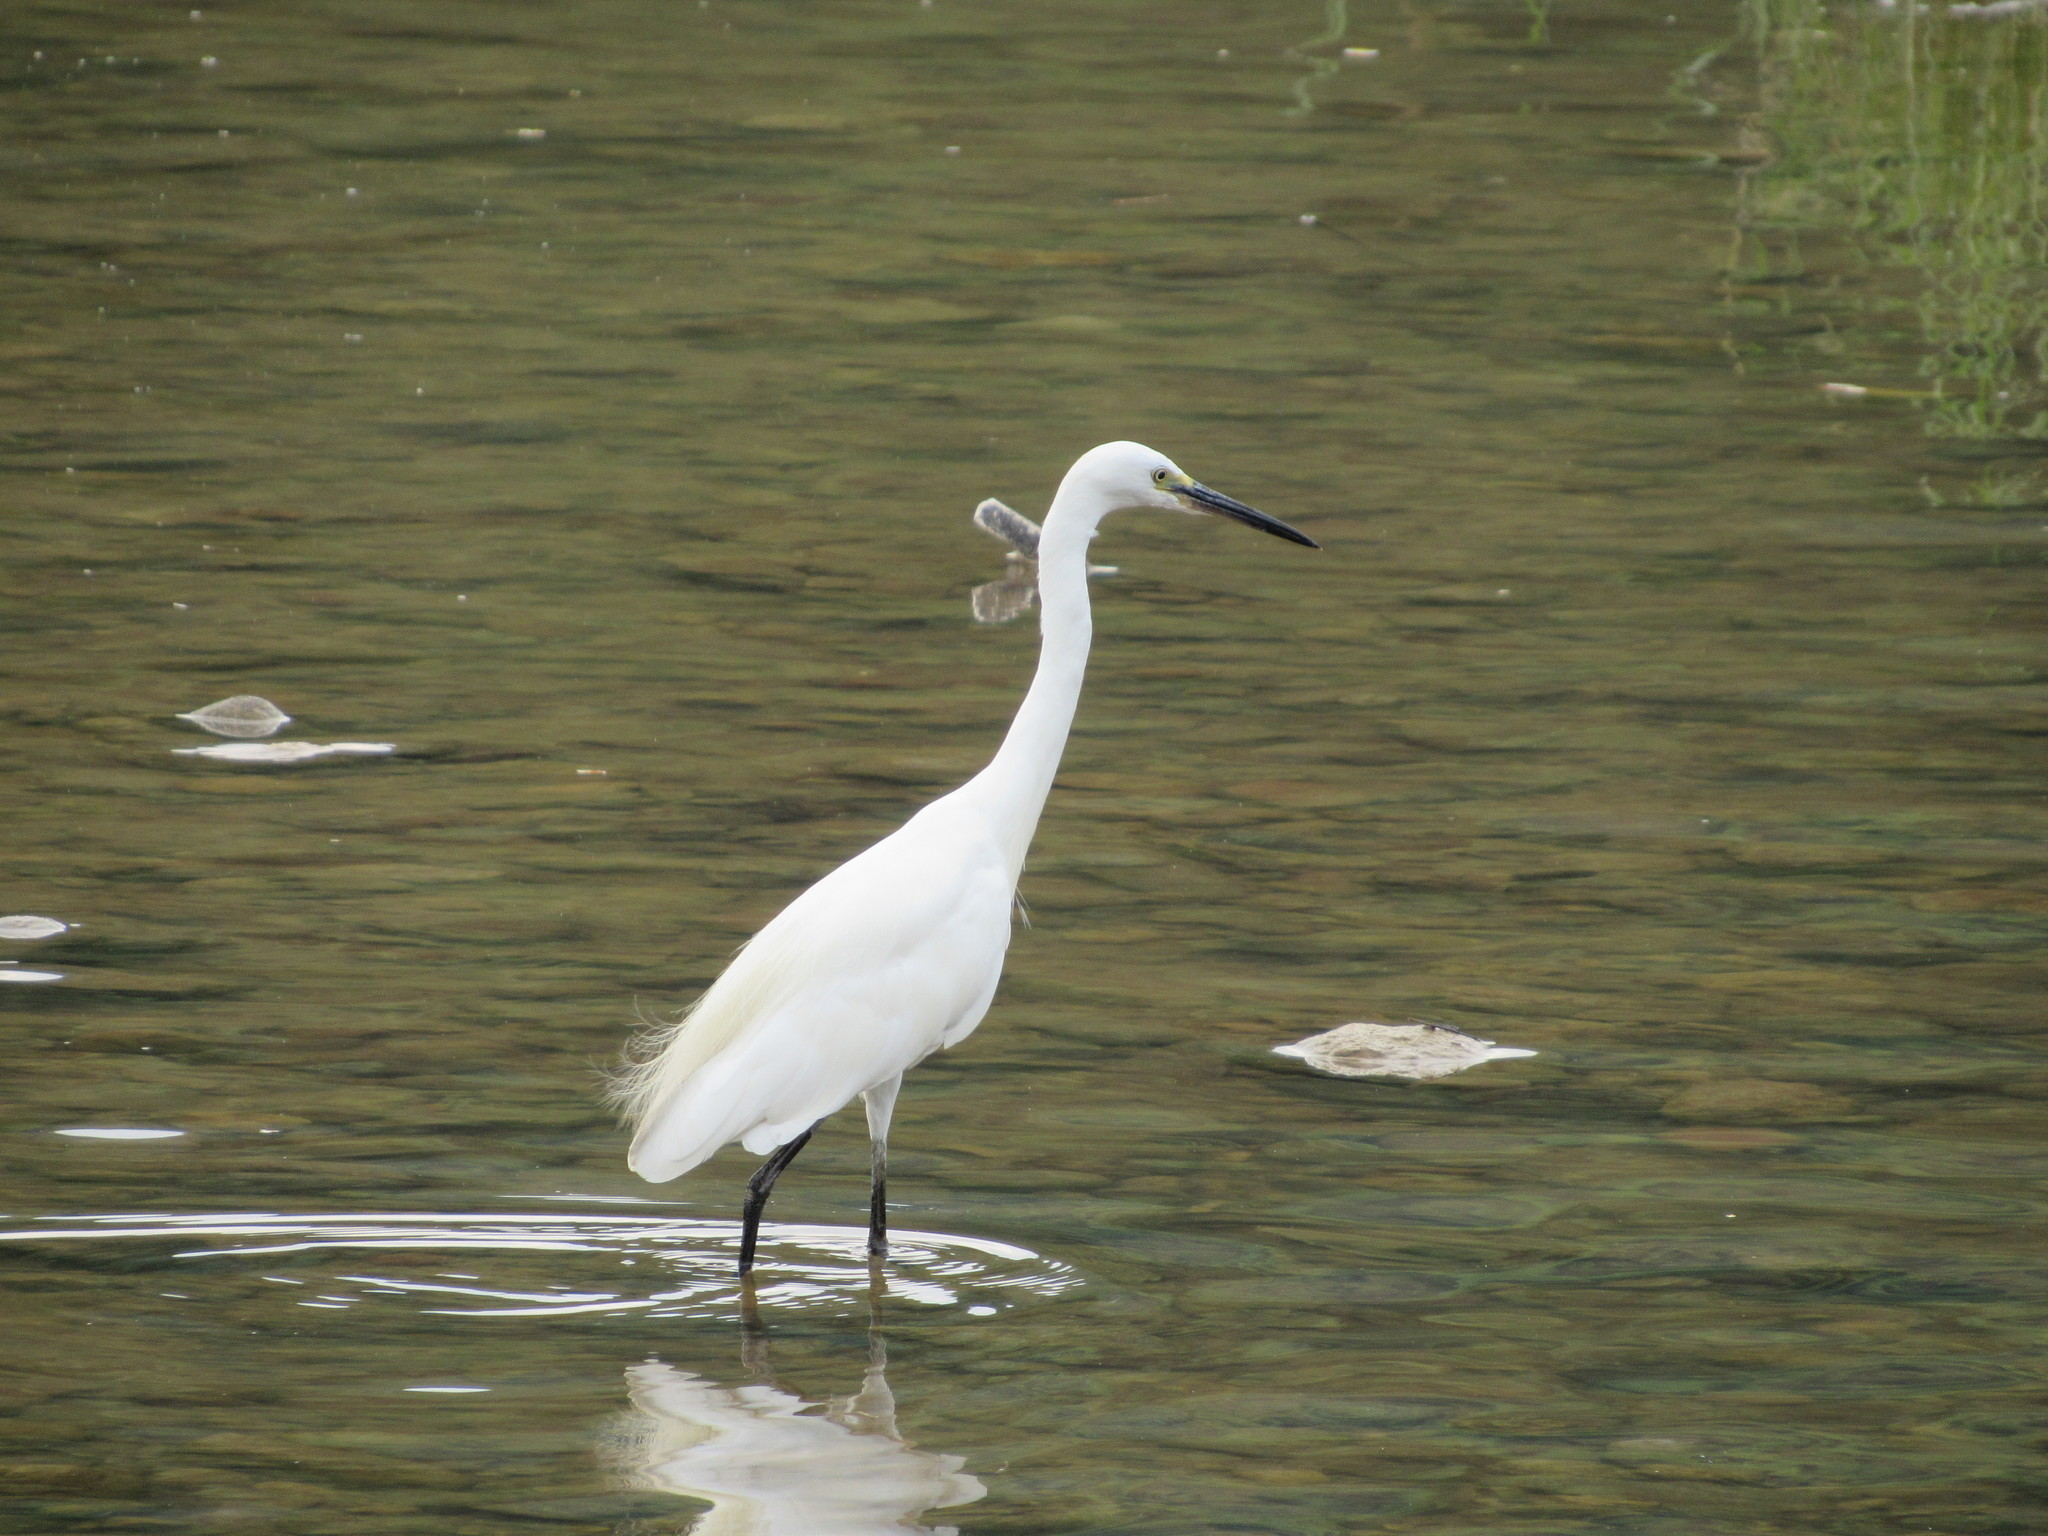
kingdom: Animalia
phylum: Chordata
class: Aves
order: Pelecaniformes
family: Ardeidae
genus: Egretta
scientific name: Egretta garzetta
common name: Little egret
